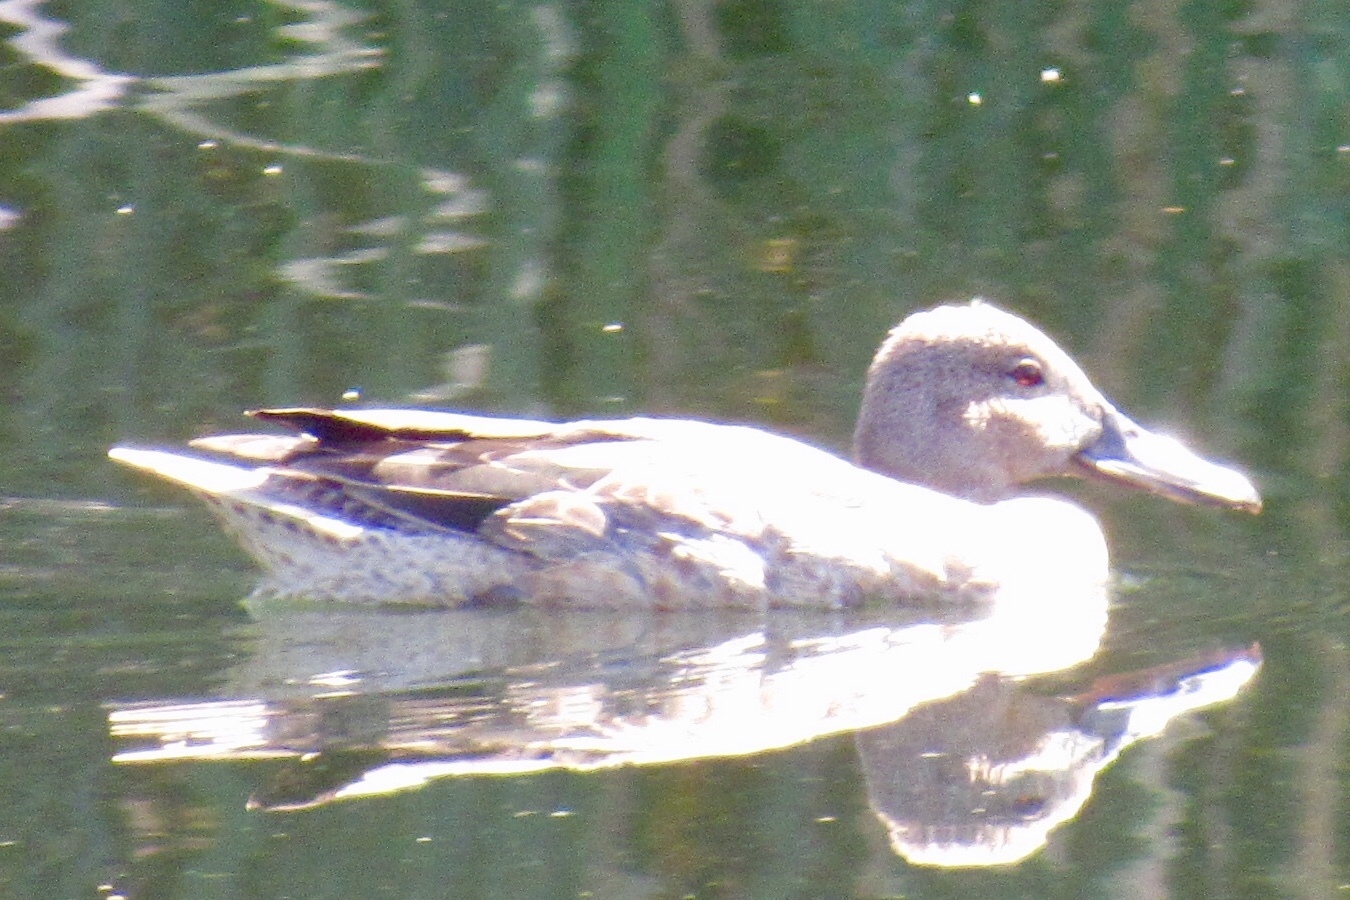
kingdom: Animalia
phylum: Chordata
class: Aves
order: Anseriformes
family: Anatidae
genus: Spatula
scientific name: Spatula cyanoptera
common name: Cinnamon teal
